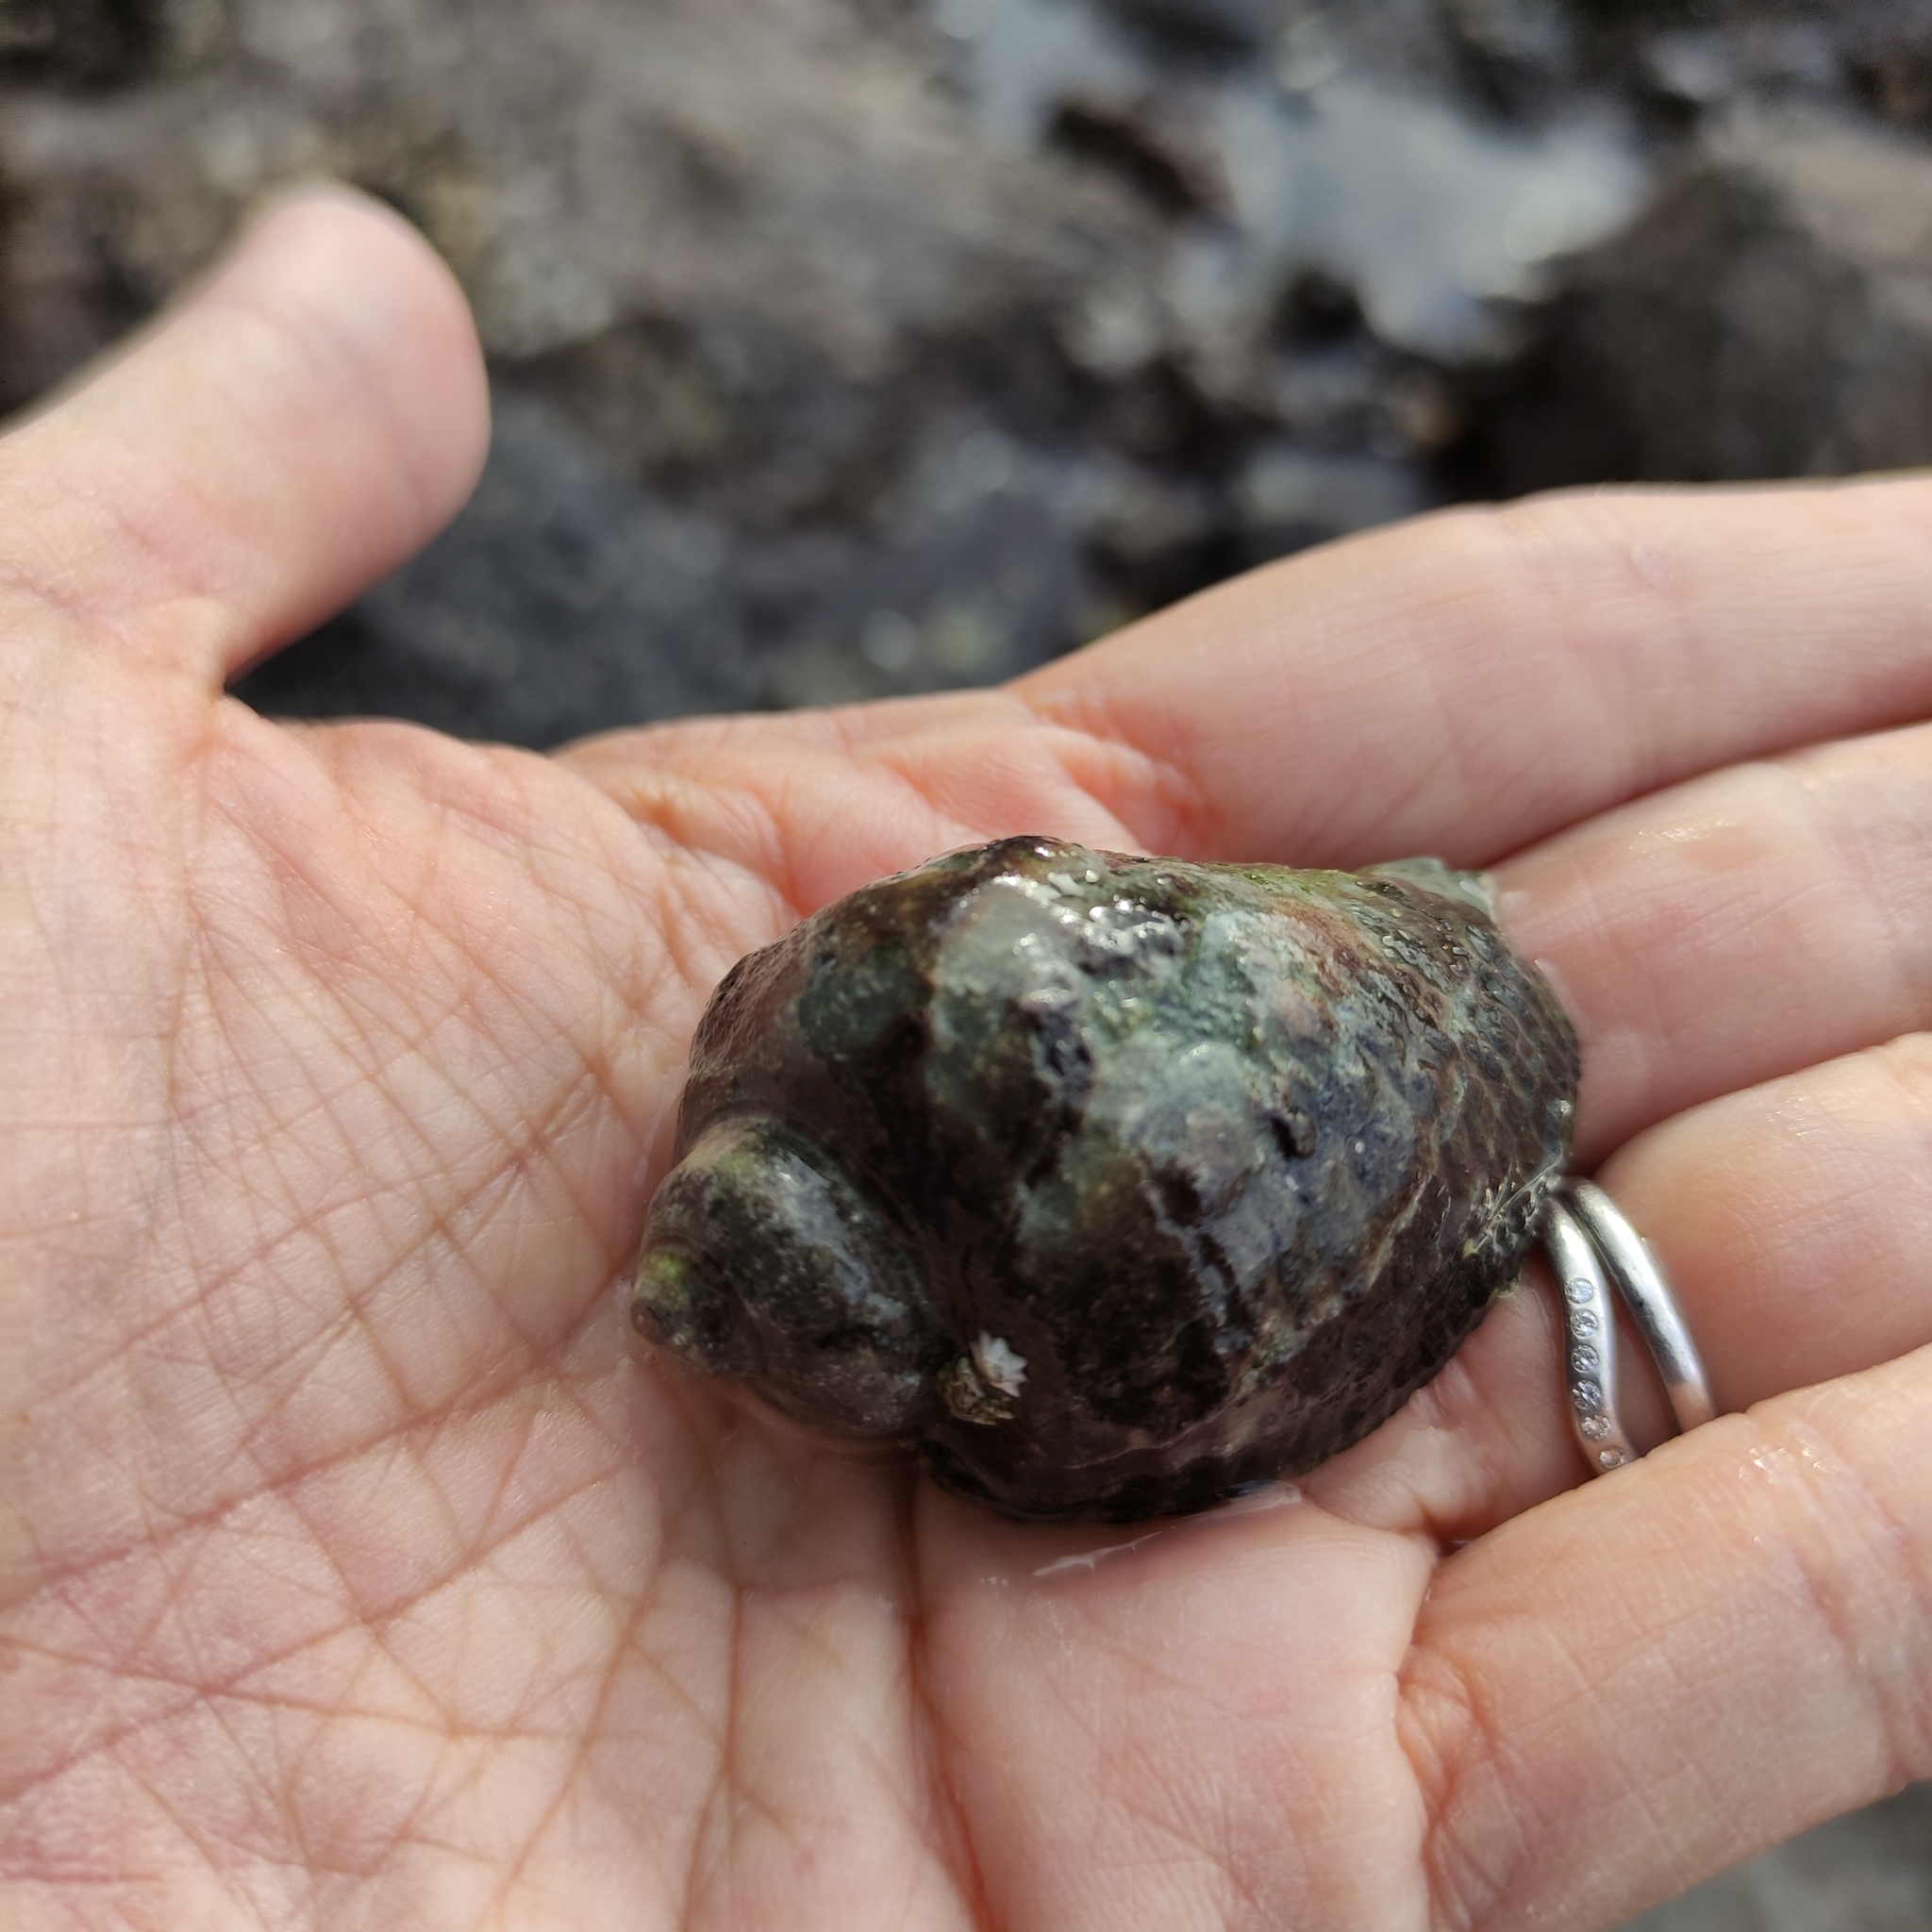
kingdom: Animalia
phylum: Mollusca
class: Gastropoda
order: Neogastropoda
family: Muricidae
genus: Haustrum
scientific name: Haustrum haustorium
